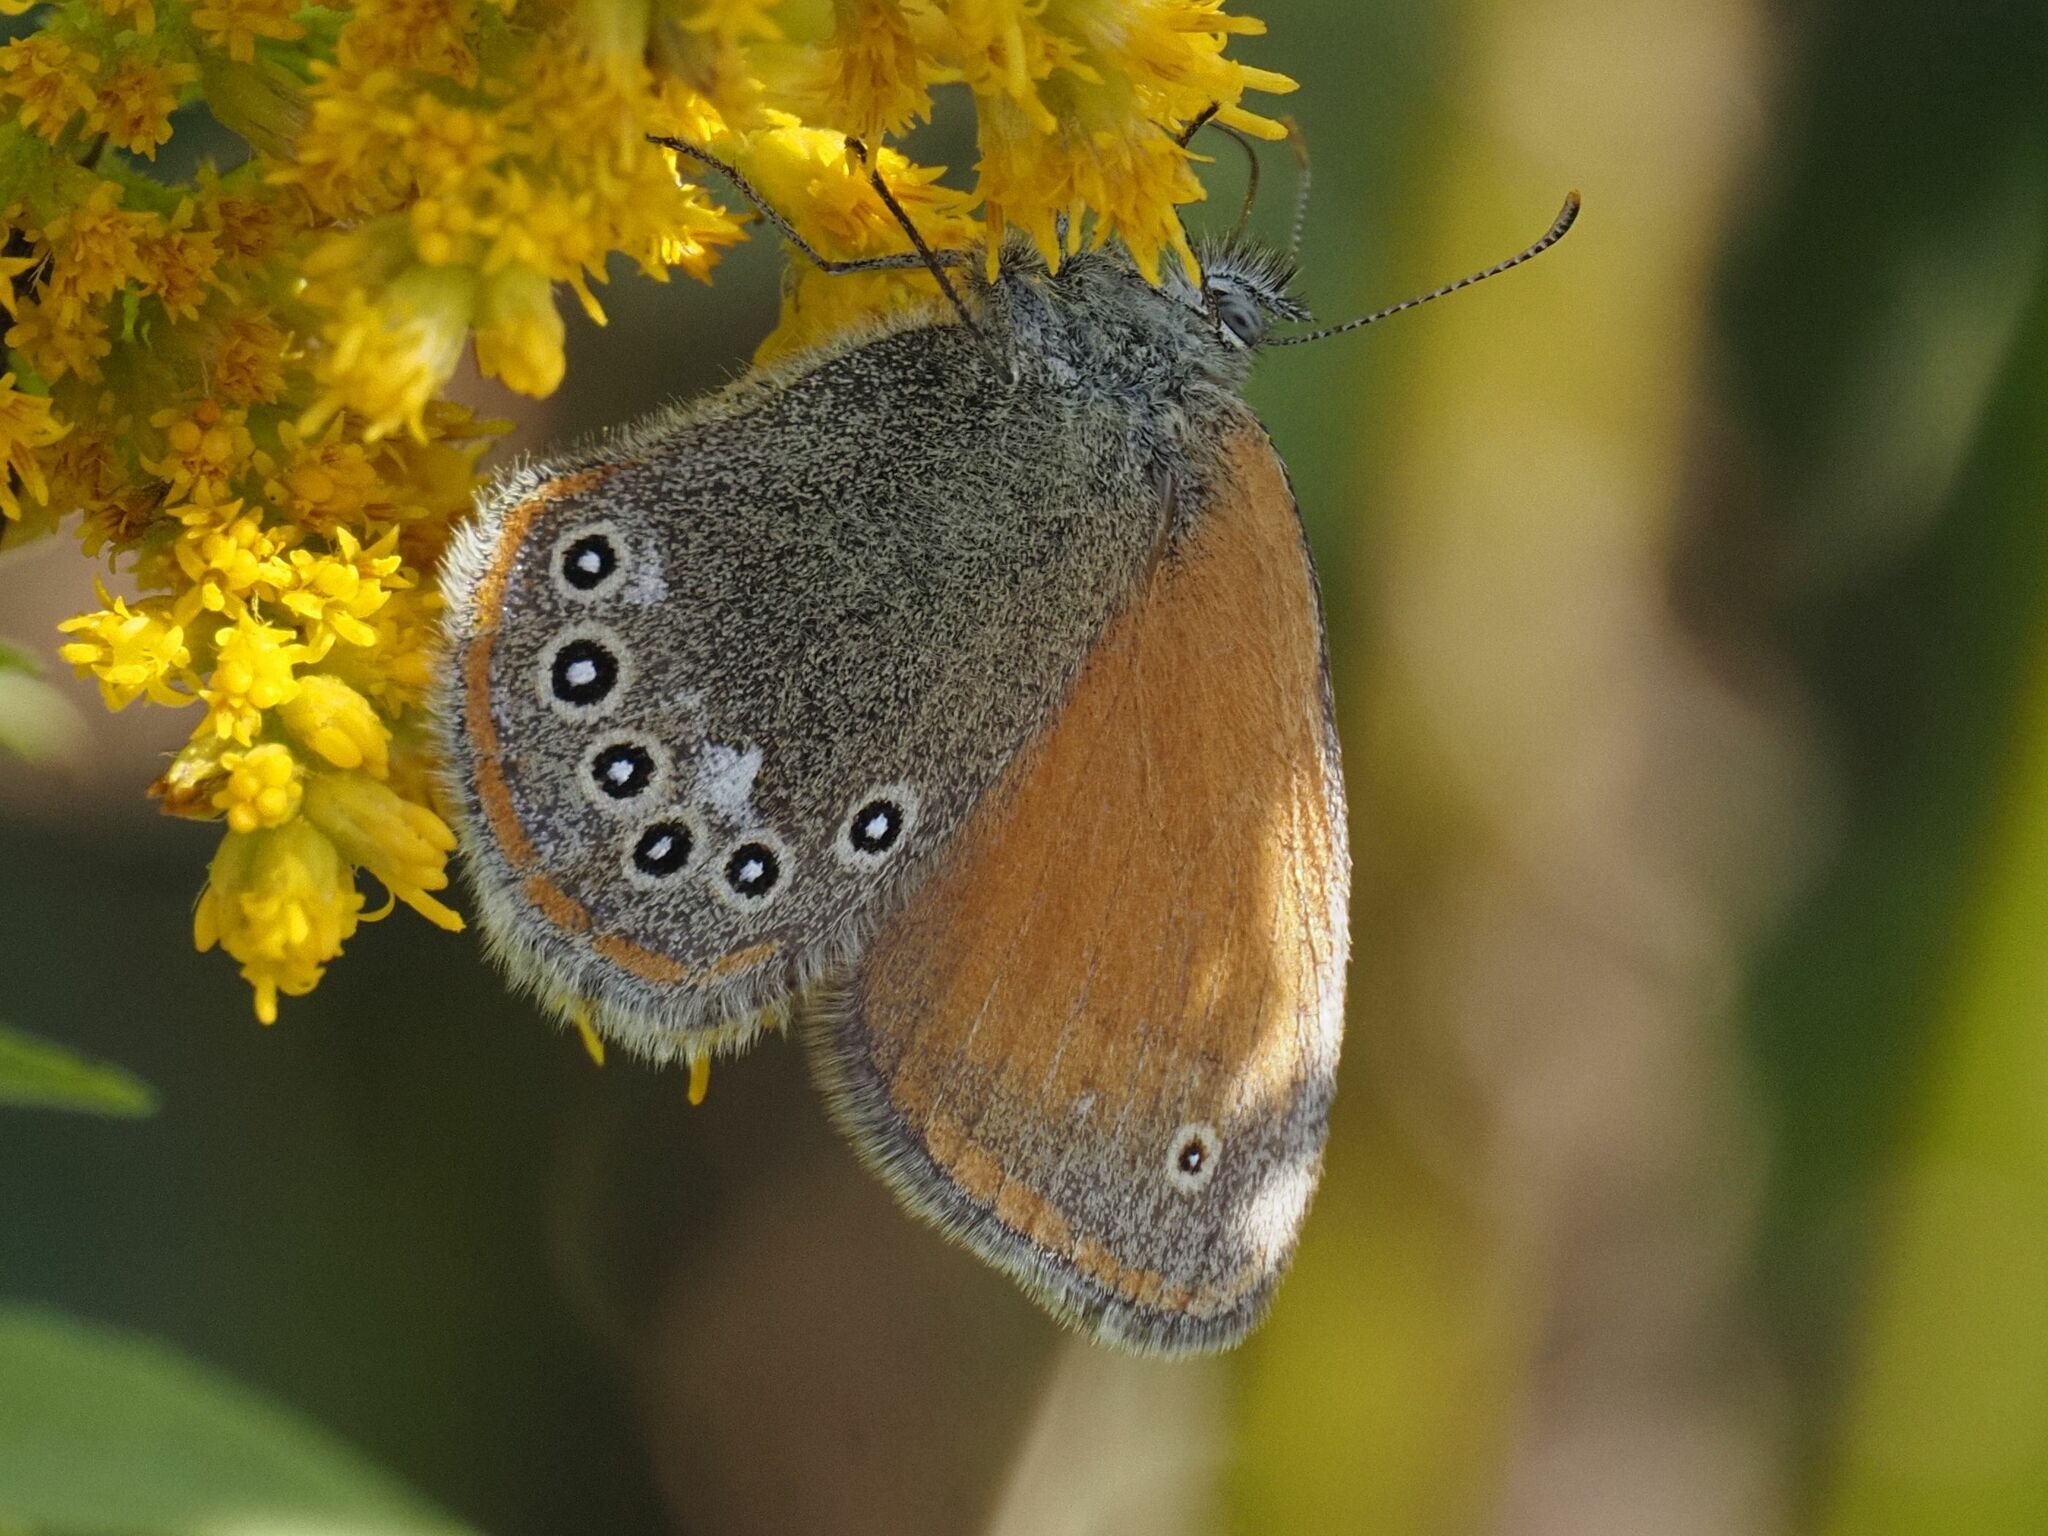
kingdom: Animalia
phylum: Arthropoda
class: Insecta
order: Lepidoptera
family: Nymphalidae
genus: Coenonympha
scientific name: Coenonympha iphis
